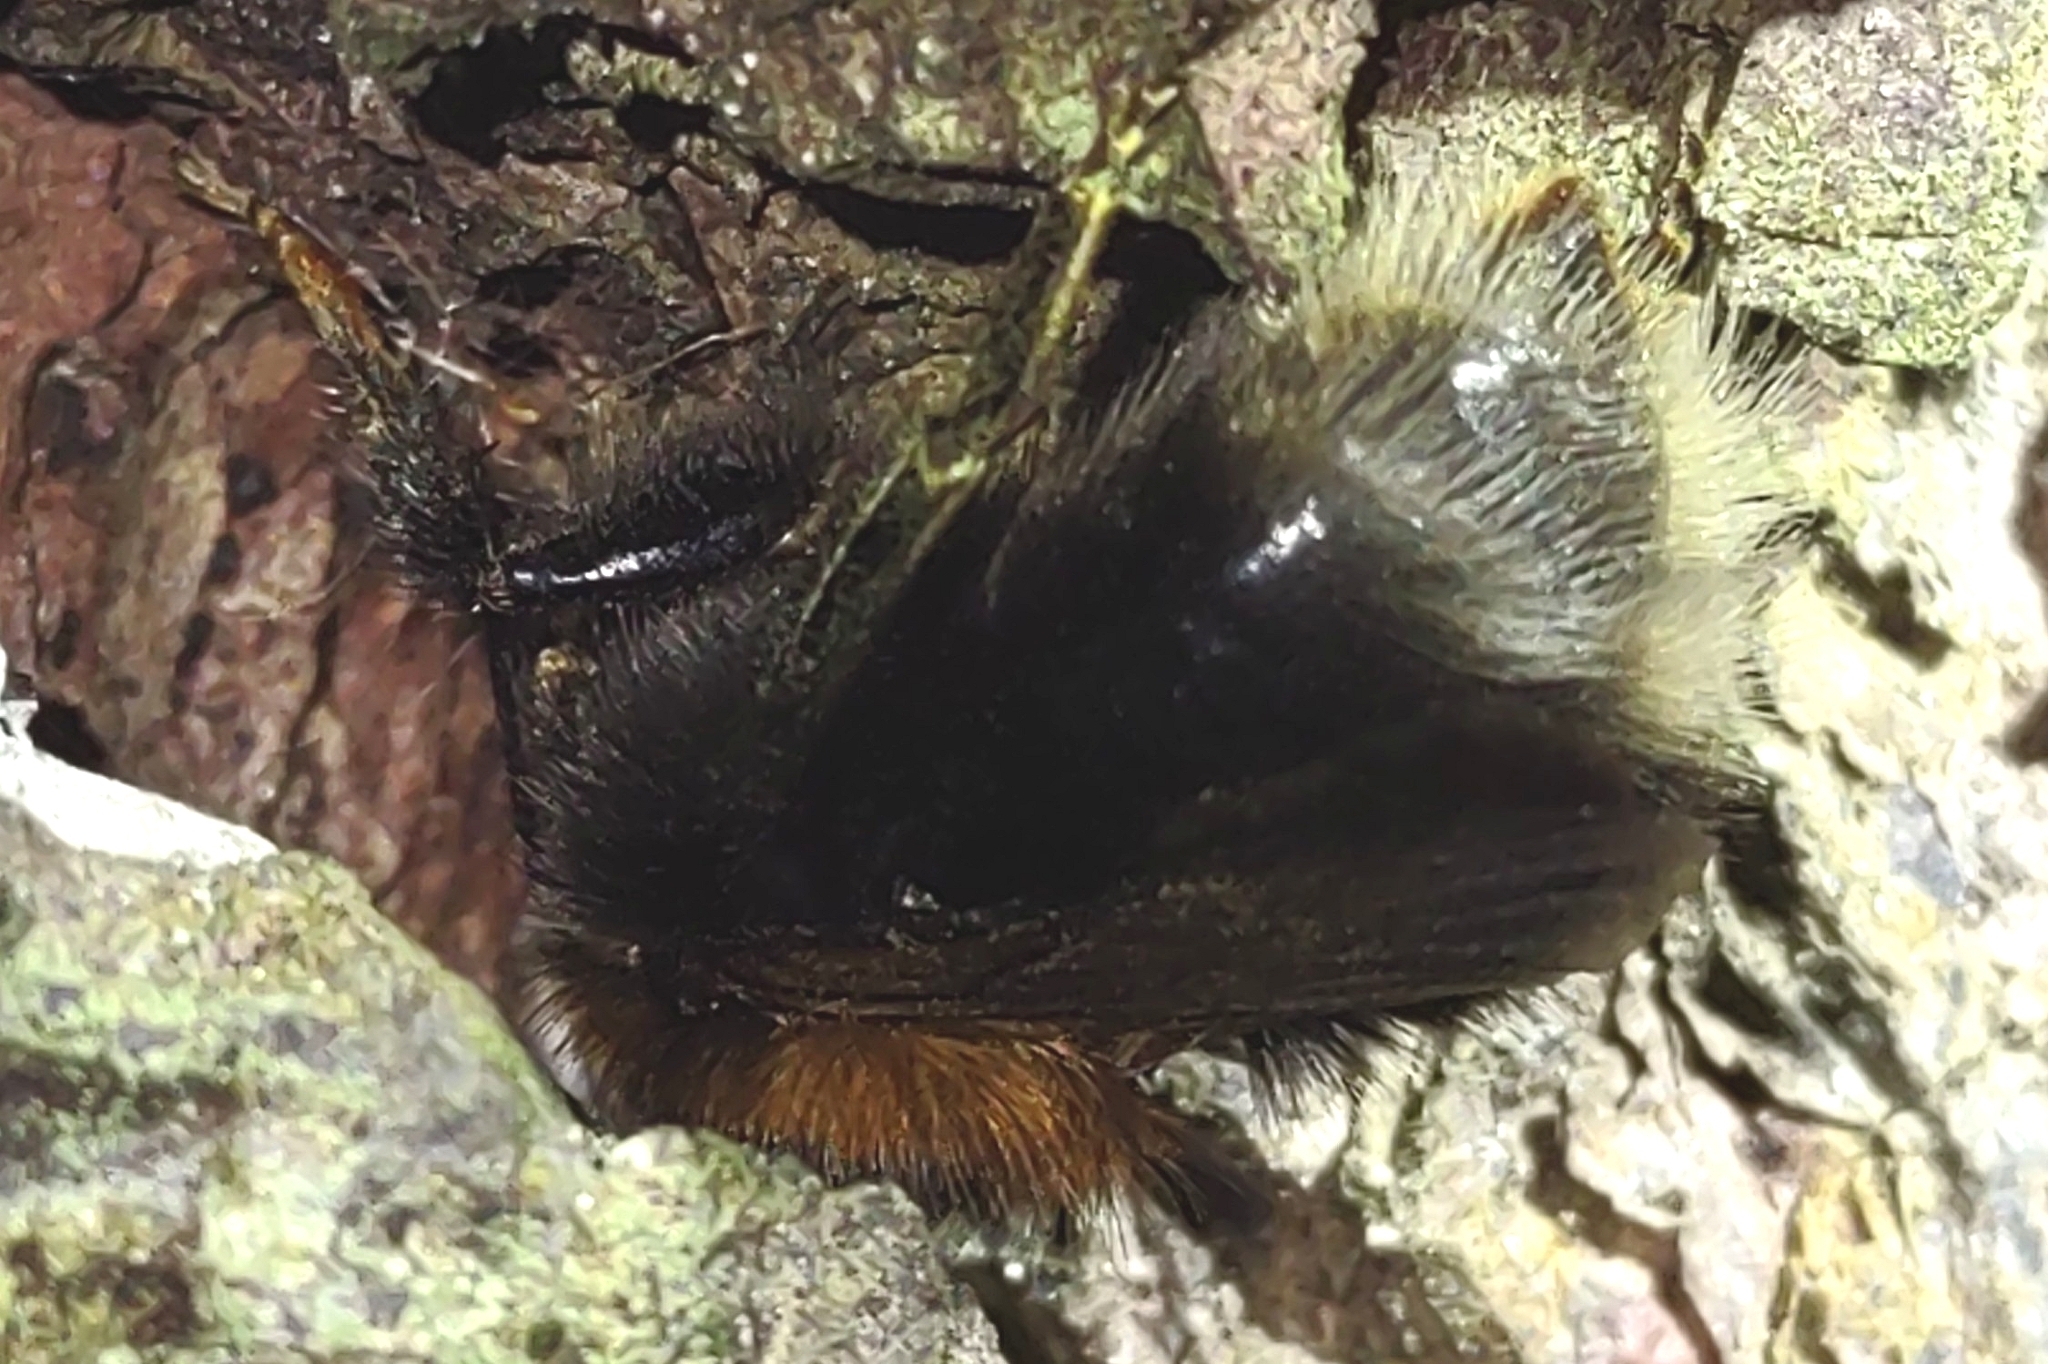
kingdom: Animalia
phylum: Arthropoda
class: Insecta
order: Hymenoptera
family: Apidae
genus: Bombus
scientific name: Bombus hypnorum
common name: New garden bumblebee
